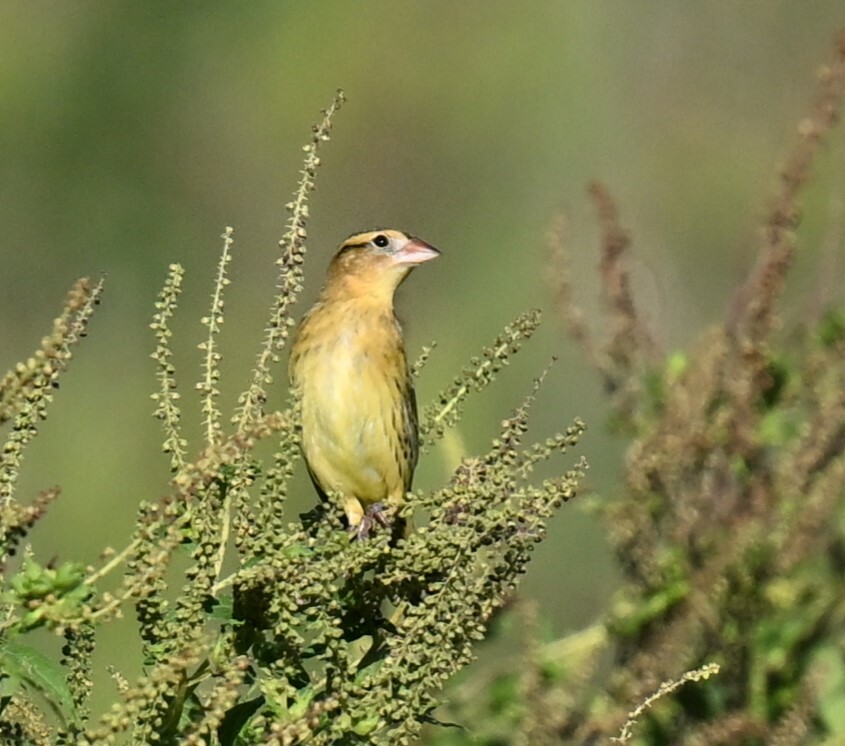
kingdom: Animalia
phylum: Chordata
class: Aves
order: Passeriformes
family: Icteridae
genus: Dolichonyx
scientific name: Dolichonyx oryzivorus
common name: Bobolink
